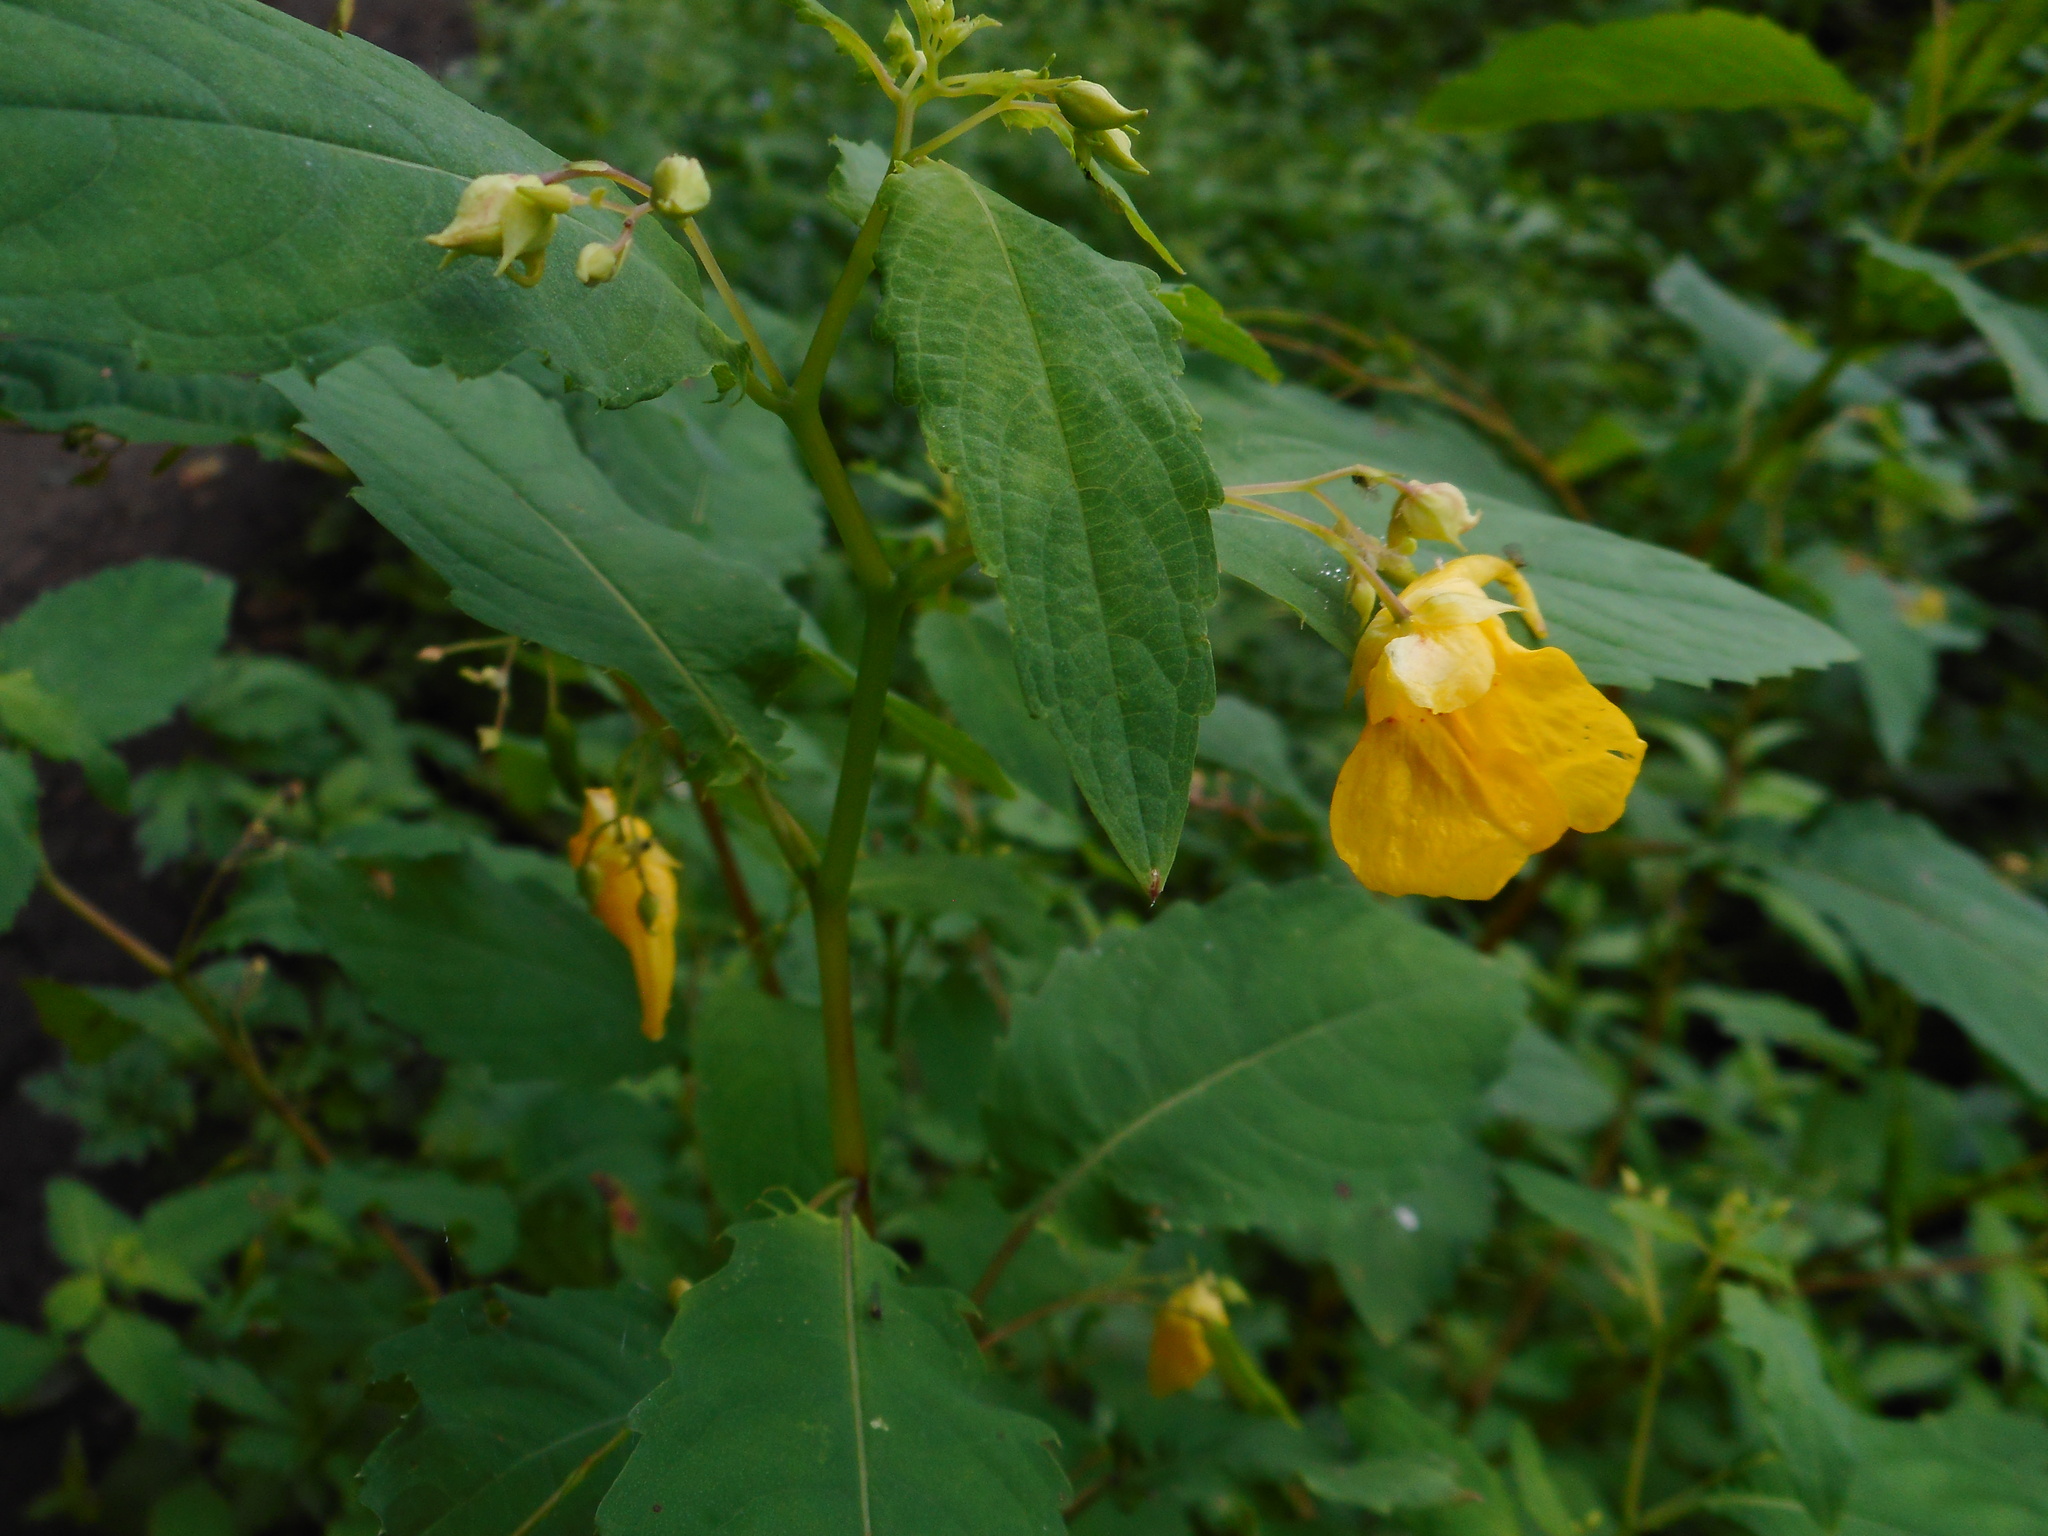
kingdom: Plantae
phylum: Tracheophyta
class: Magnoliopsida
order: Ericales
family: Balsaminaceae
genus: Impatiens
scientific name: Impatiens noli-tangere
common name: Touch-me-not balsam
